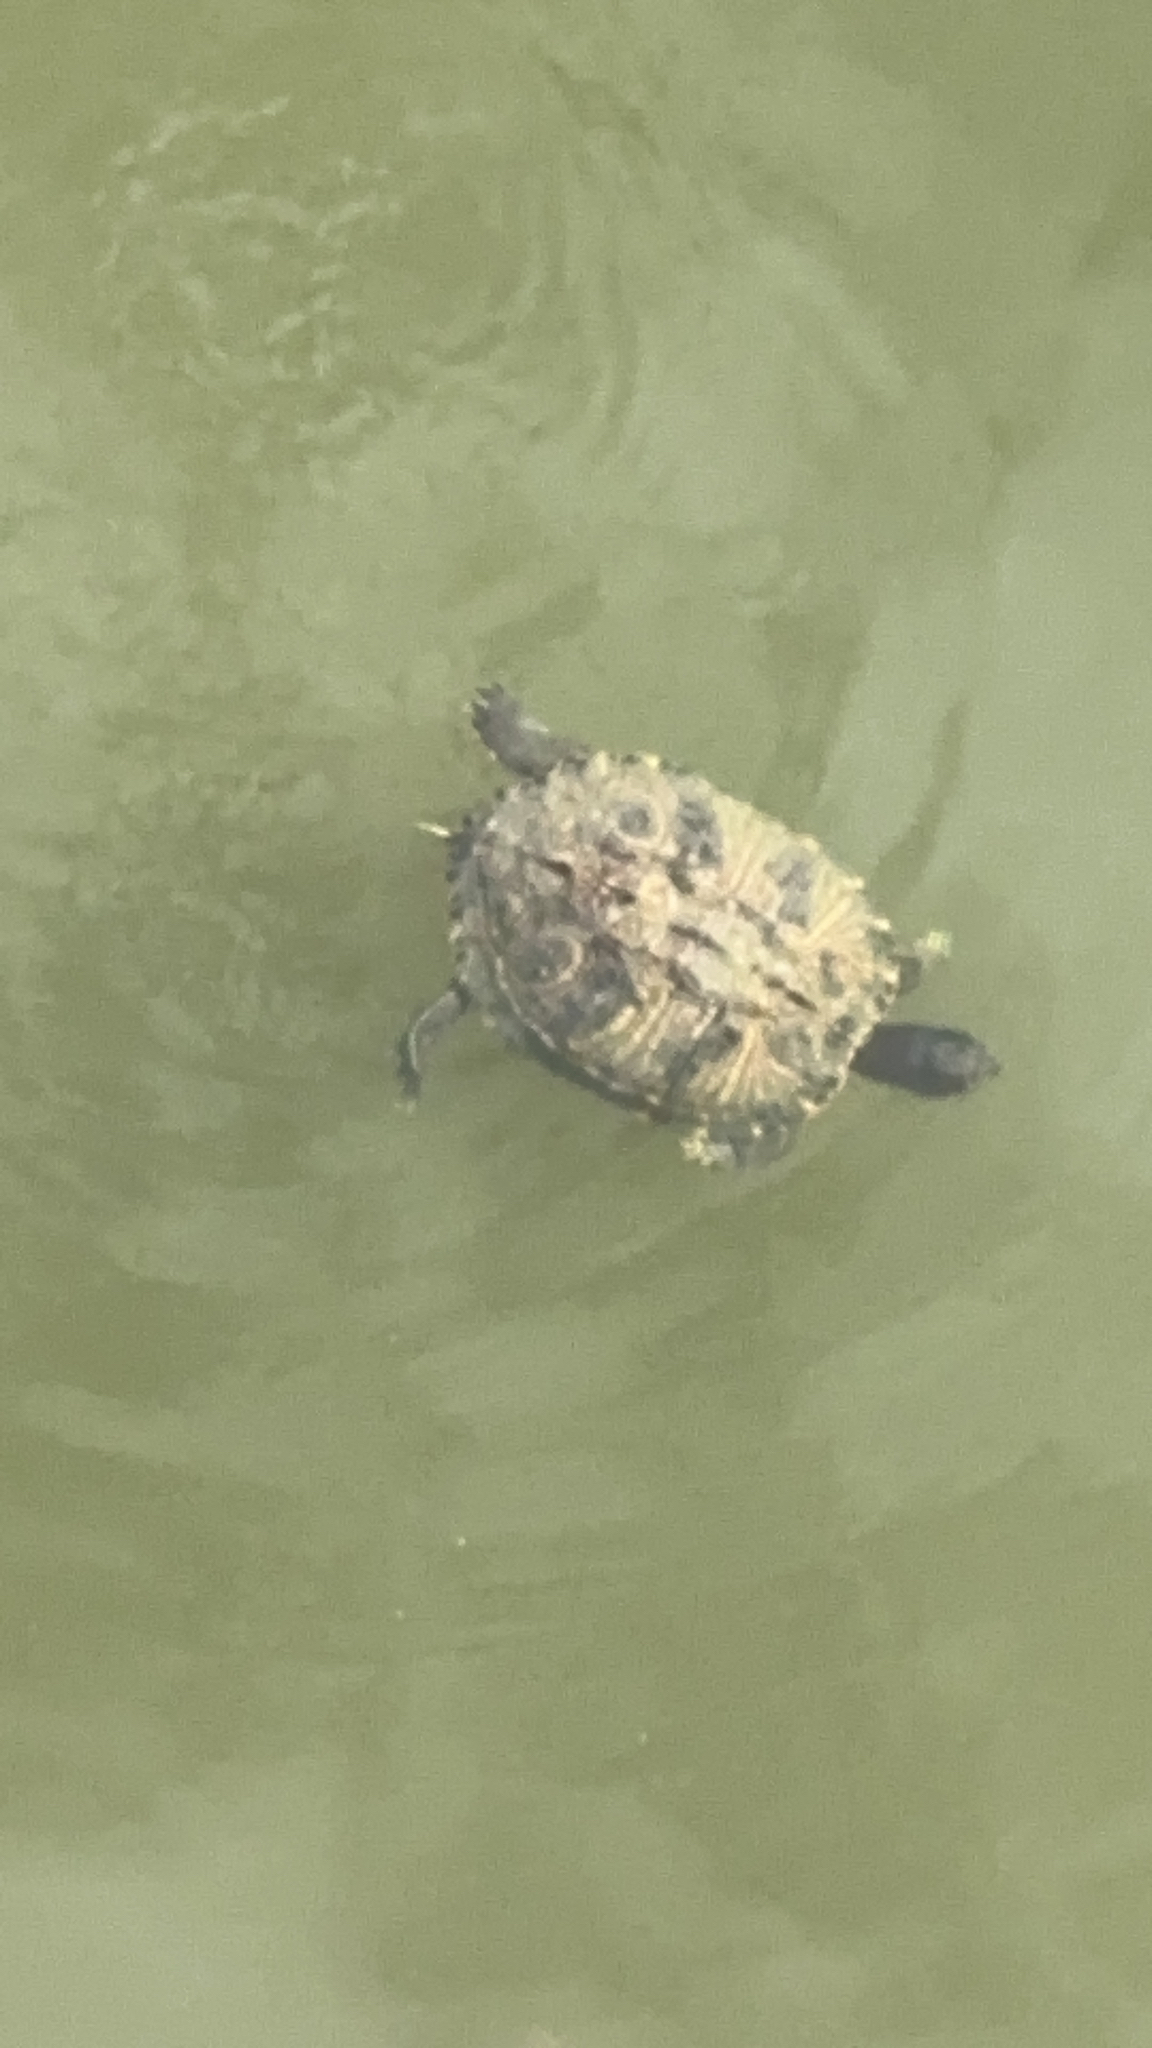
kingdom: Animalia
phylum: Chordata
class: Testudines
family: Emydidae
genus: Trachemys
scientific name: Trachemys scripta
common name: Slider
